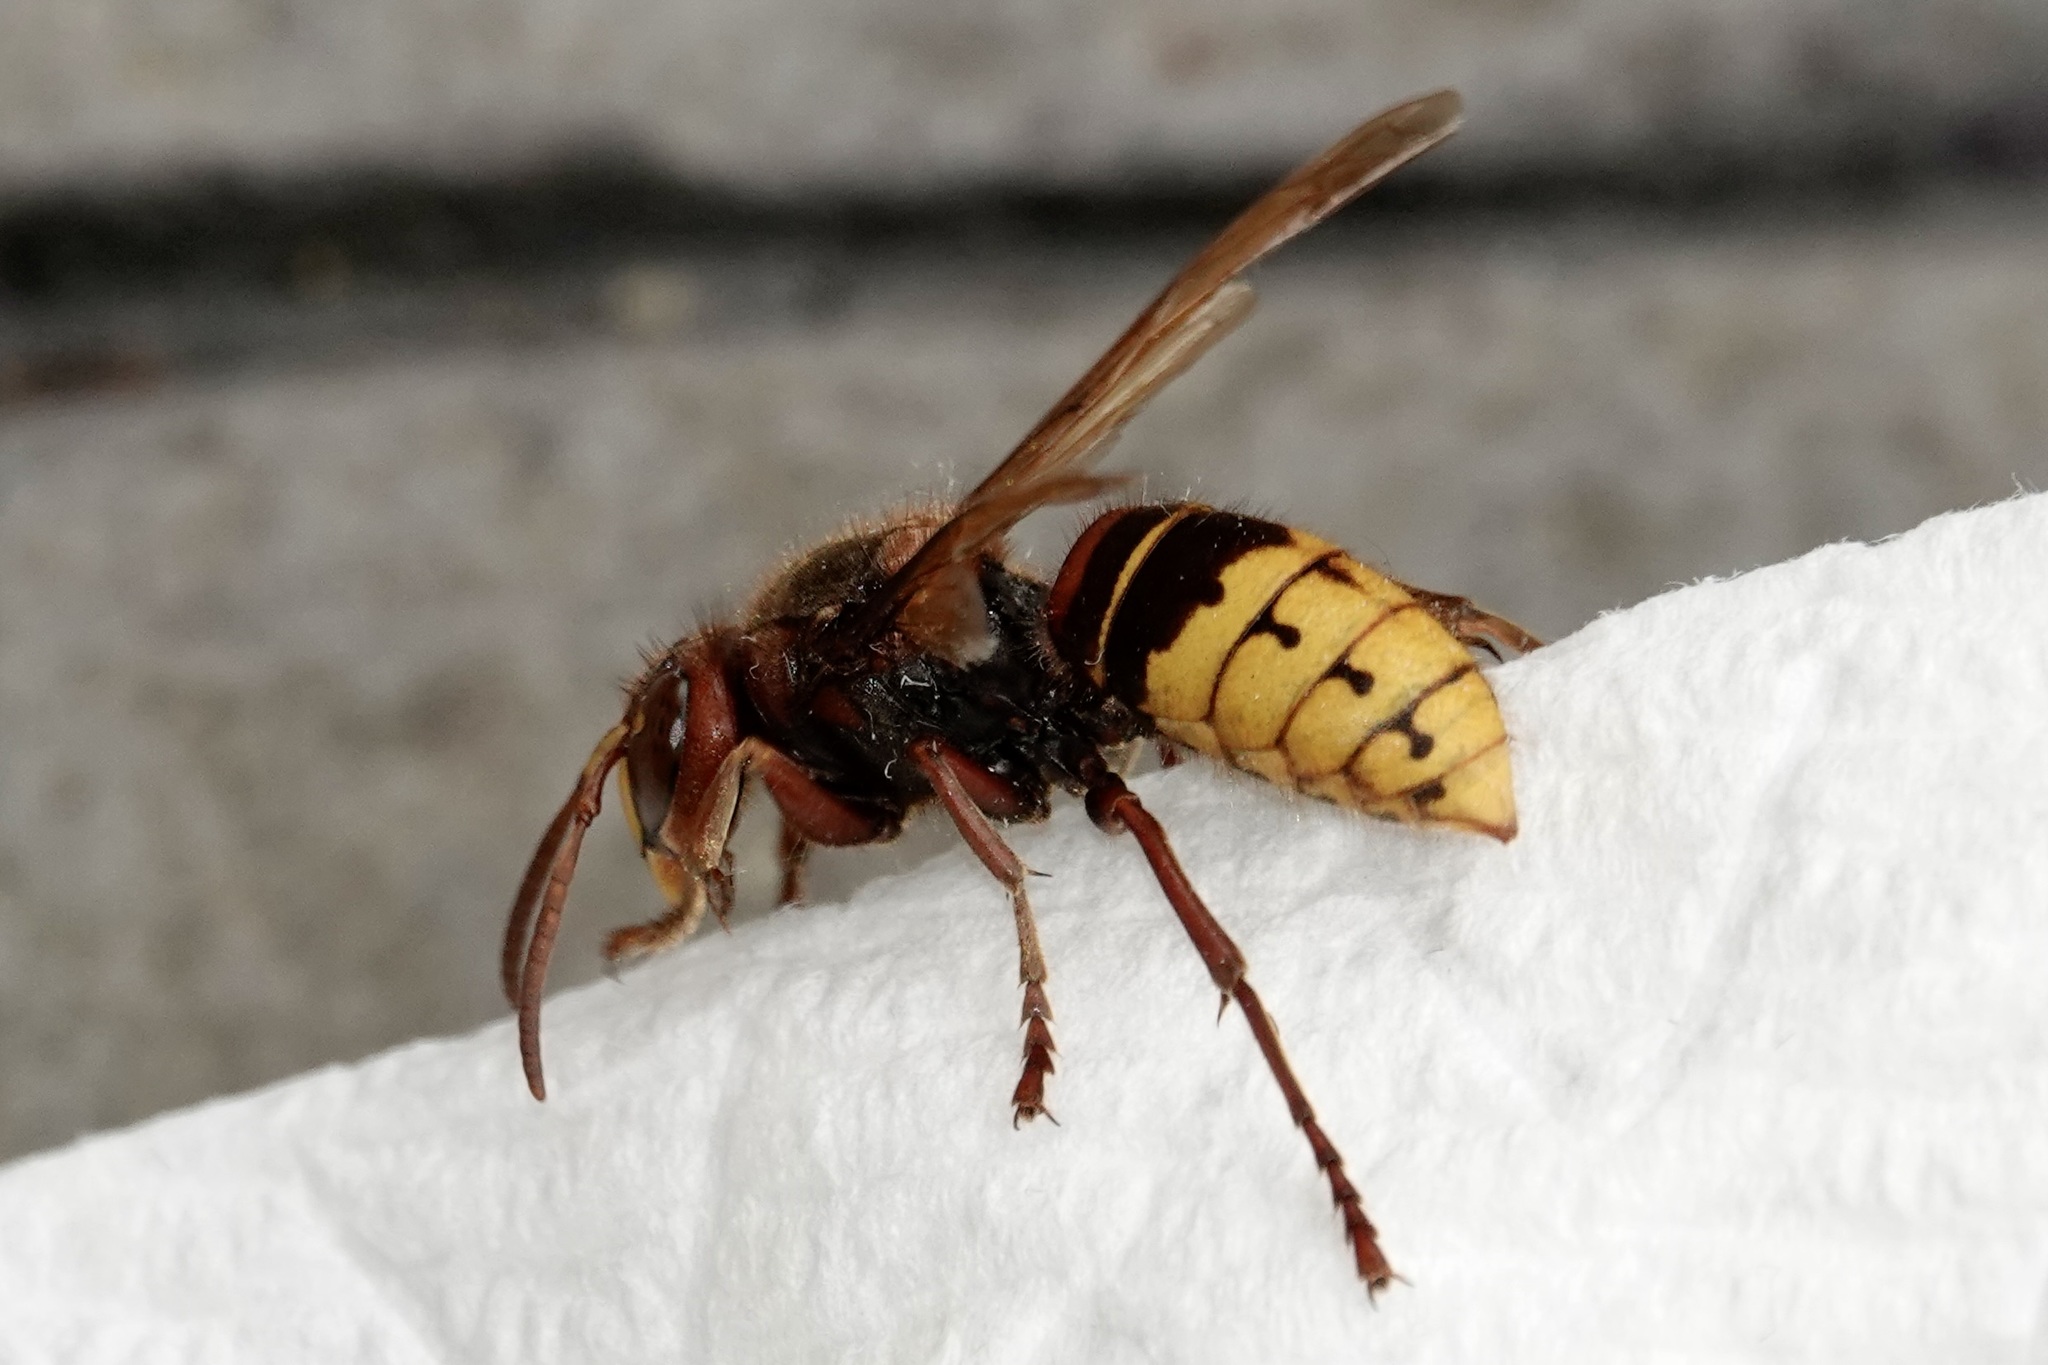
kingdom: Animalia
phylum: Arthropoda
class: Insecta
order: Hymenoptera
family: Vespidae
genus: Vespa
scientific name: Vespa crabro
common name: Hornet
